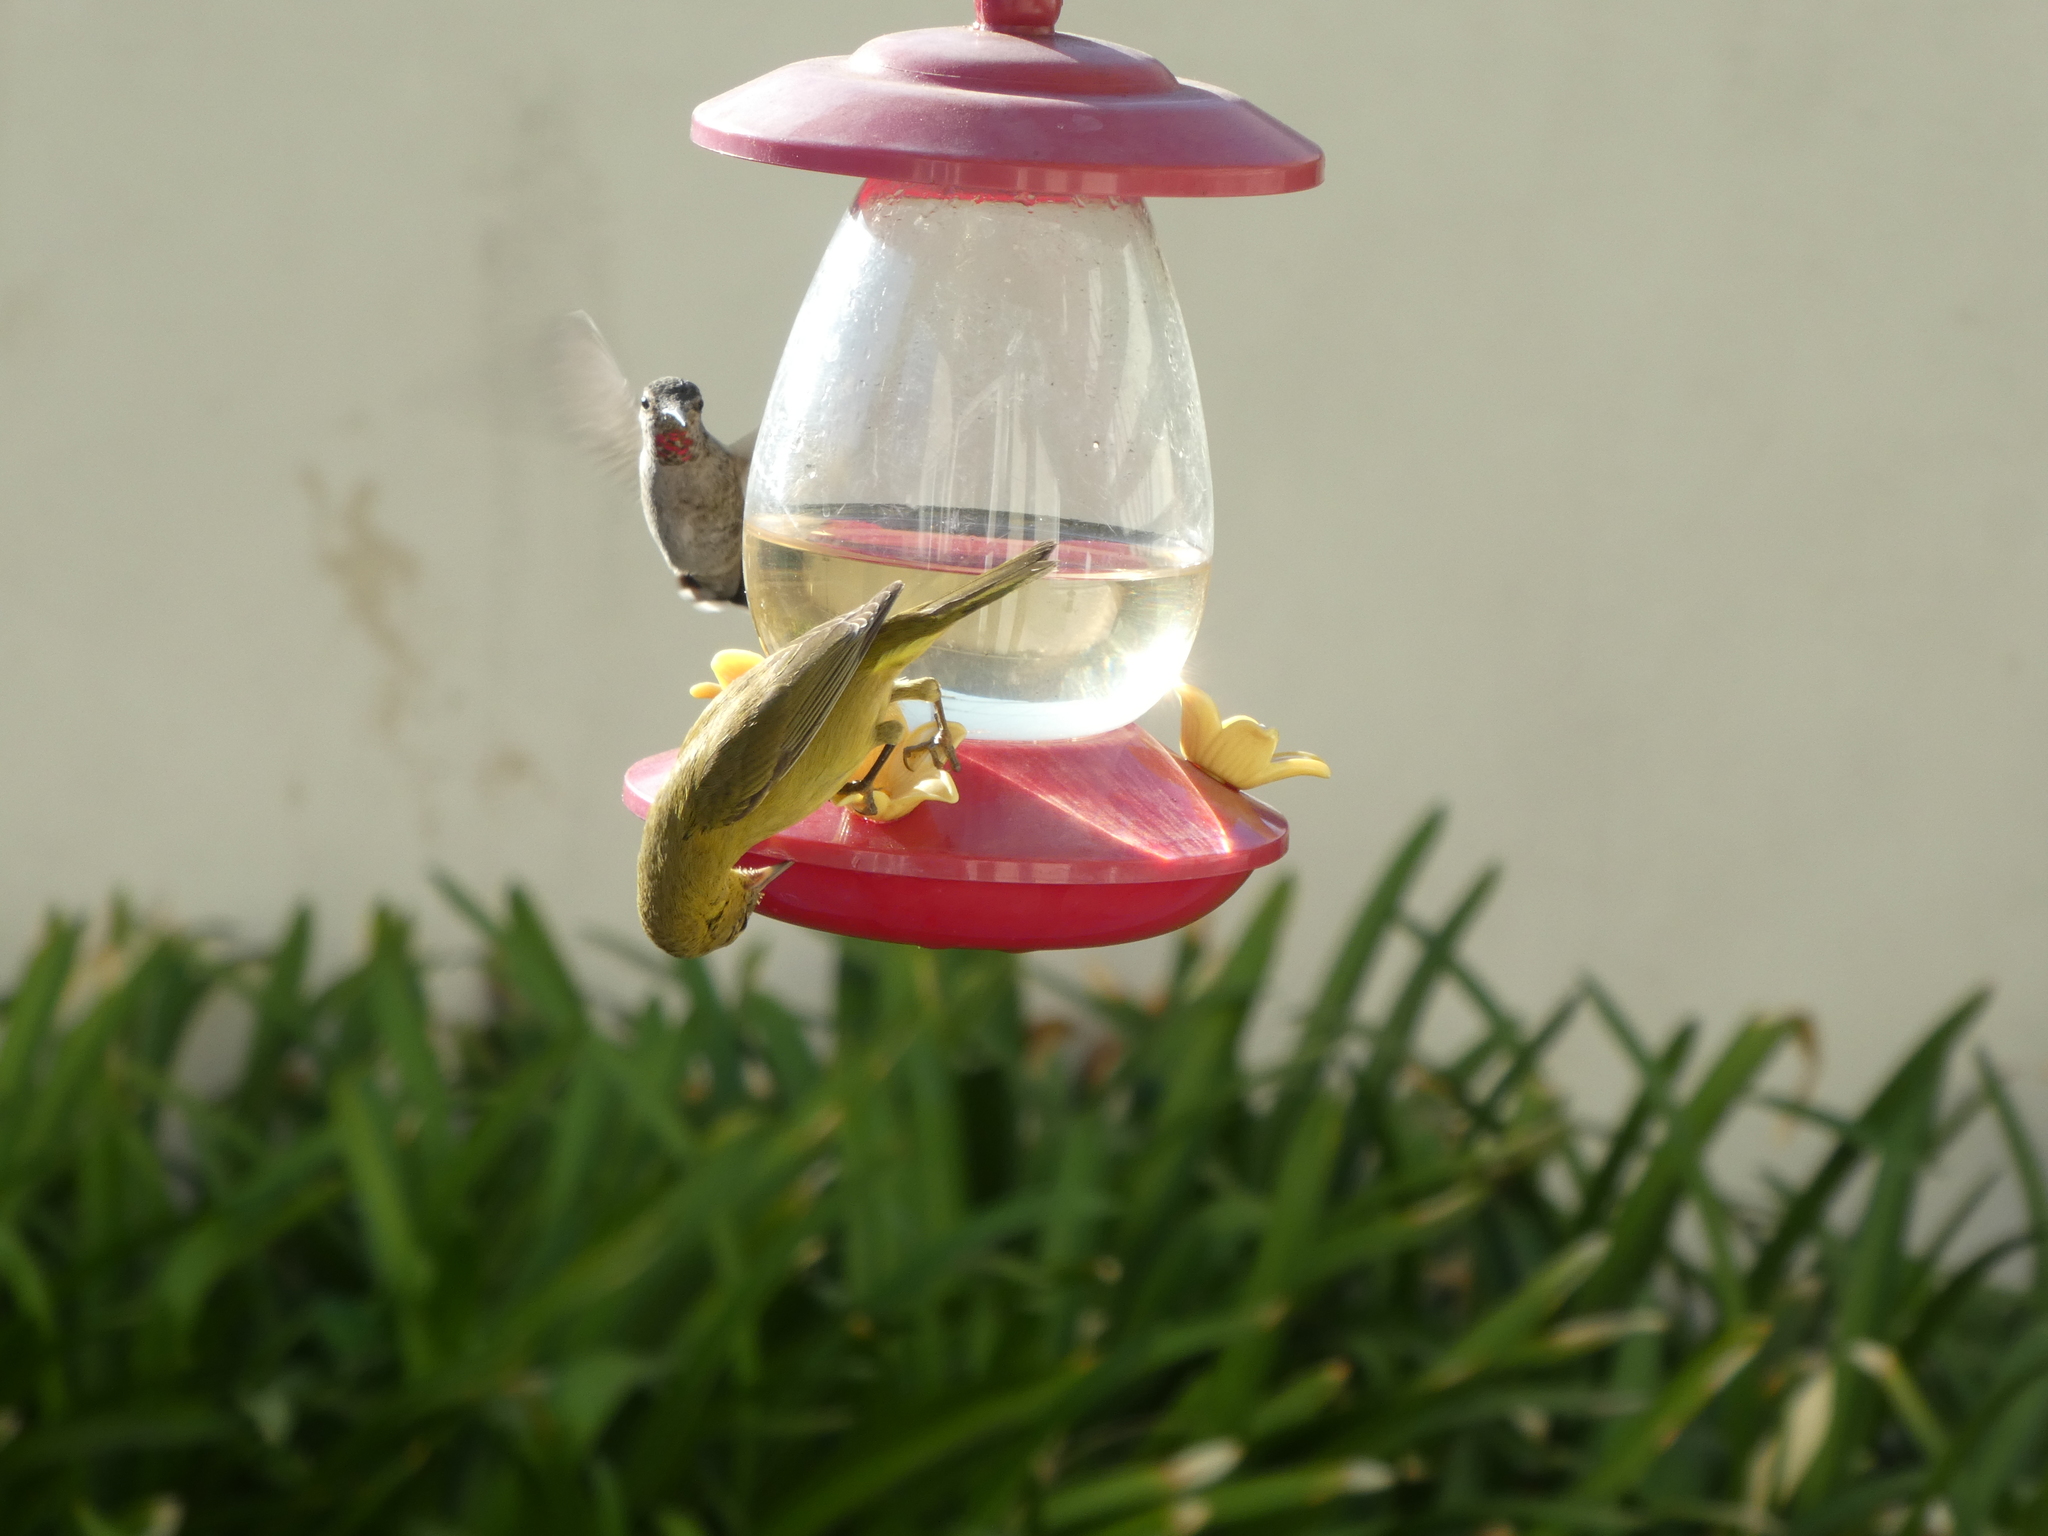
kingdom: Animalia
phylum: Chordata
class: Aves
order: Passeriformes
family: Parulidae
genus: Leiothlypis
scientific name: Leiothlypis celata
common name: Orange-crowned warbler
